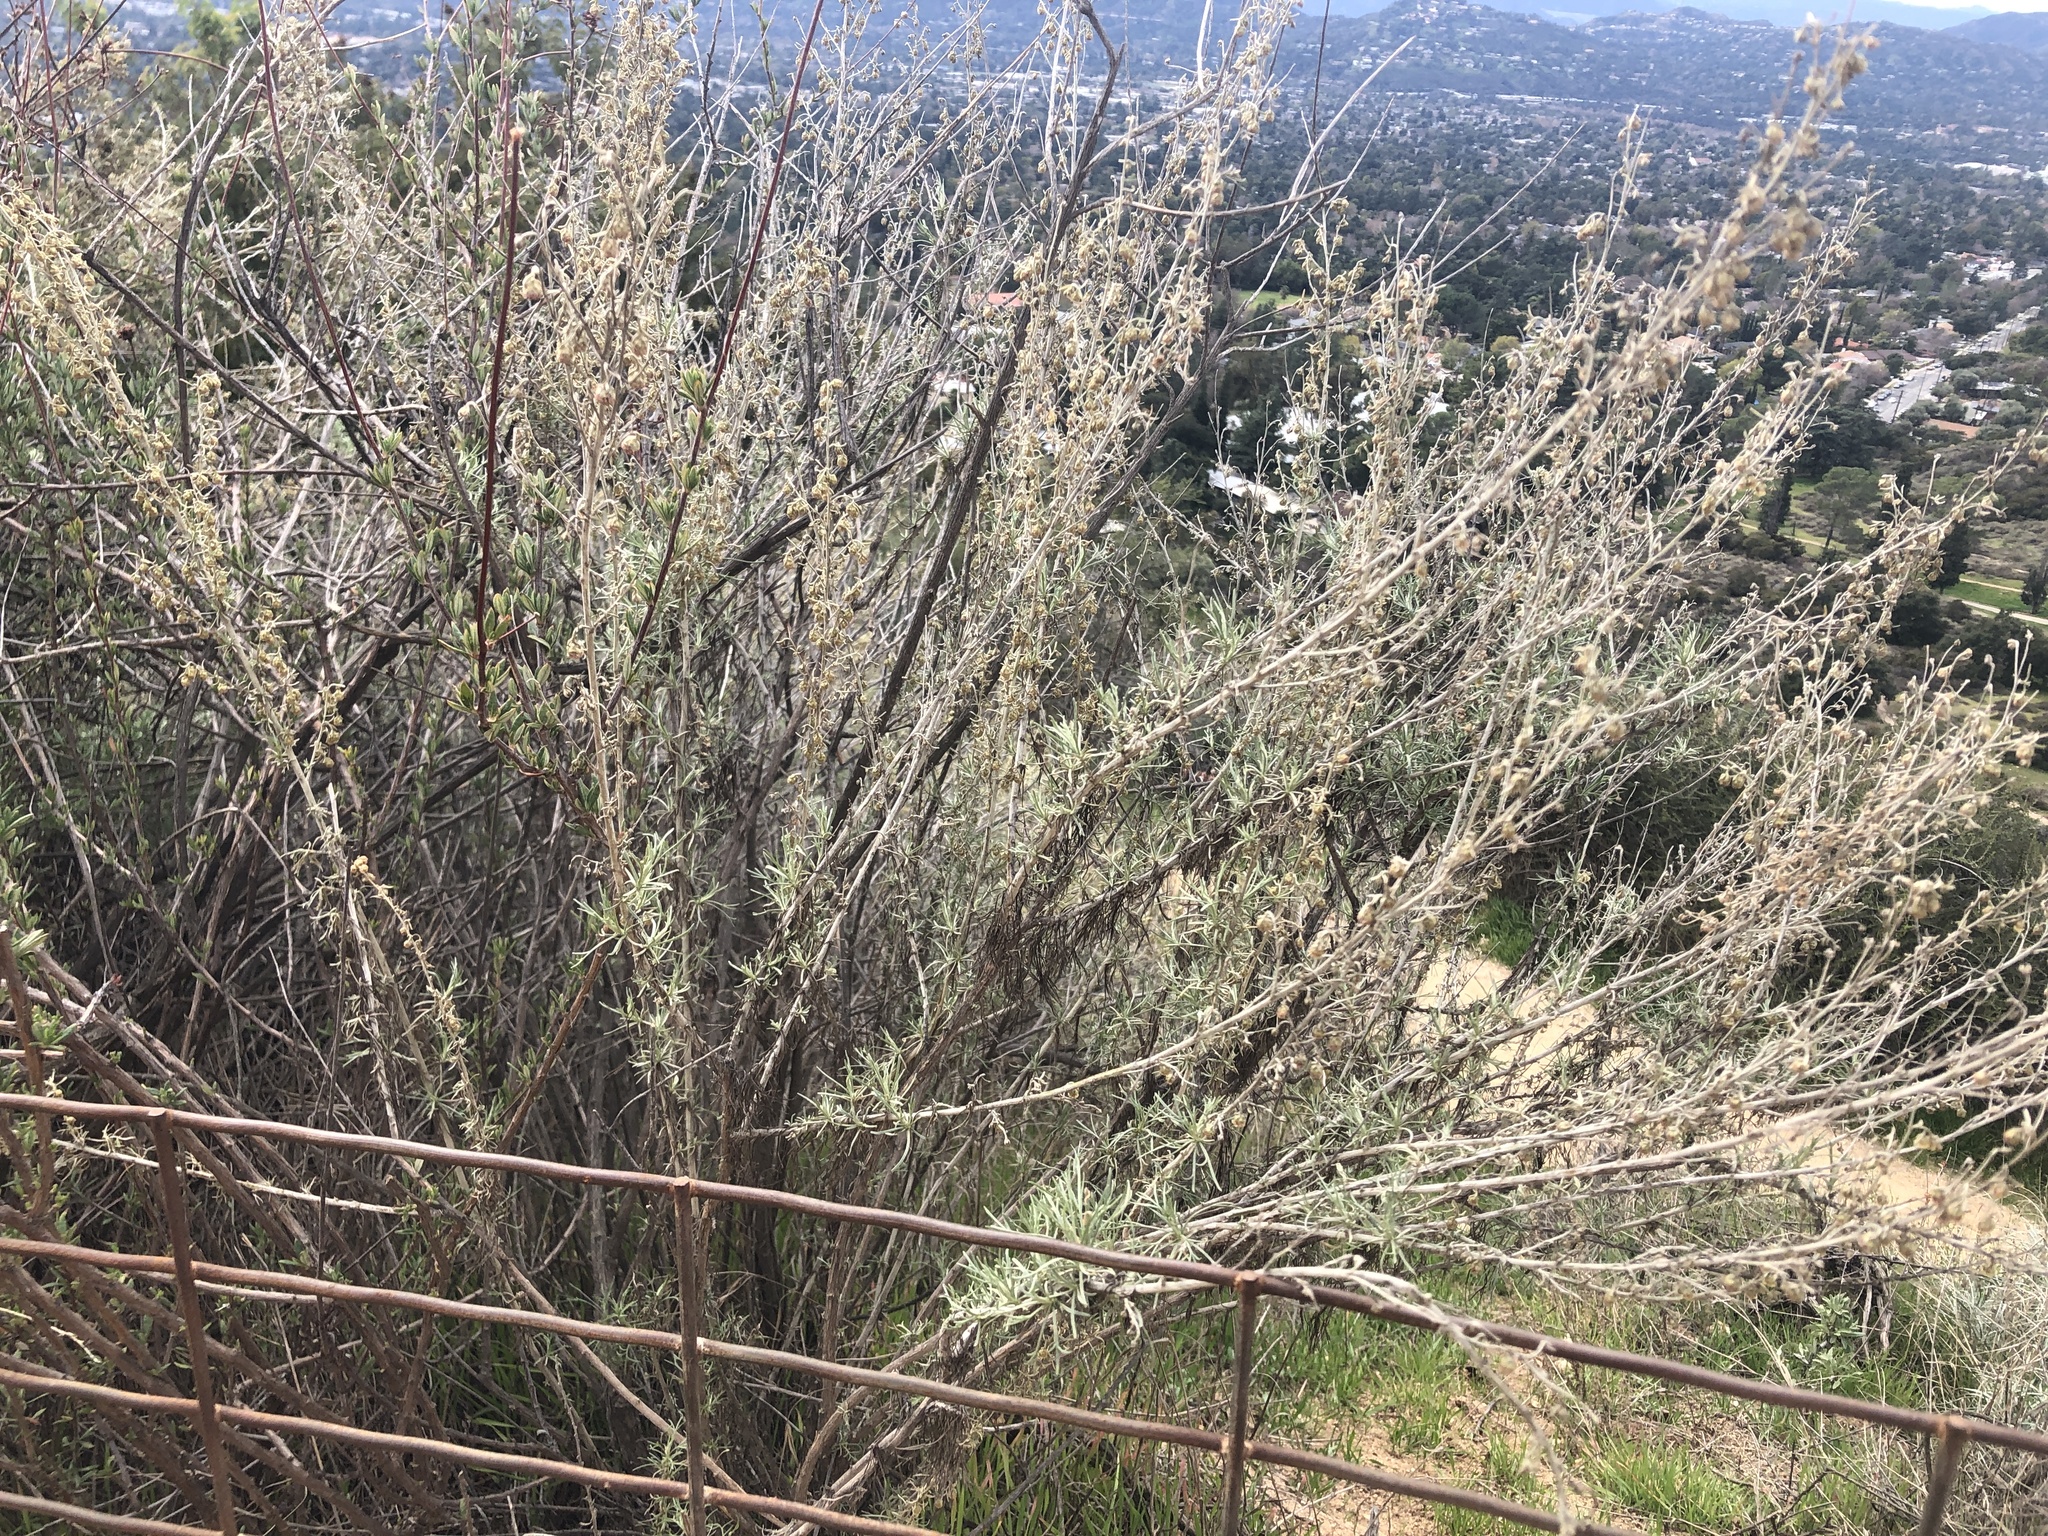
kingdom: Plantae
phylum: Tracheophyta
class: Magnoliopsida
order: Asterales
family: Asteraceae
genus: Artemisia
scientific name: Artemisia californica
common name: California sagebrush
